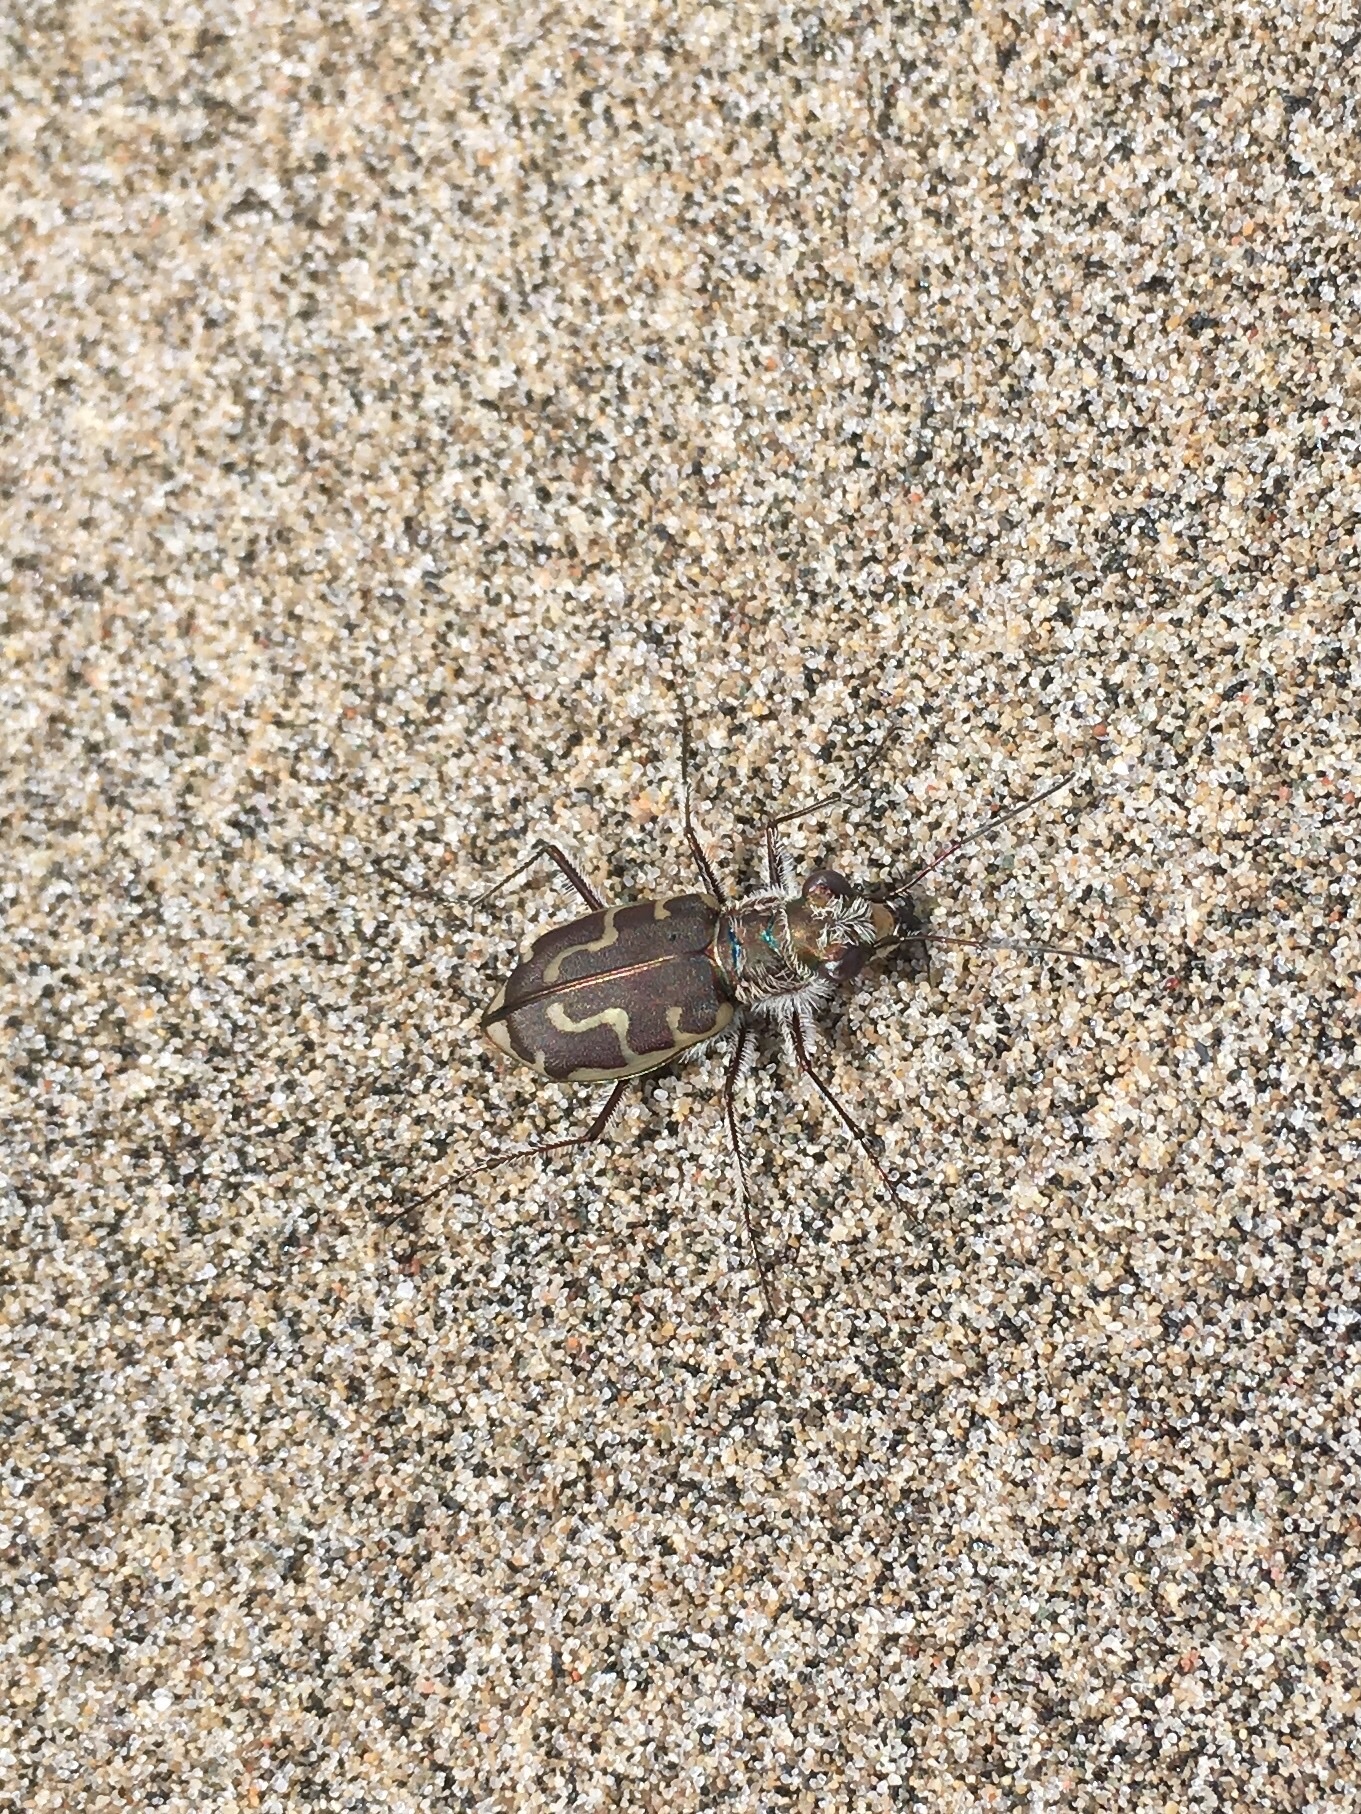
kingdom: Animalia
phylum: Arthropoda
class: Insecta
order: Coleoptera
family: Carabidae
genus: Cicindela
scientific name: Cicindela hirticollis
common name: Hairy-necked tiger beetle
